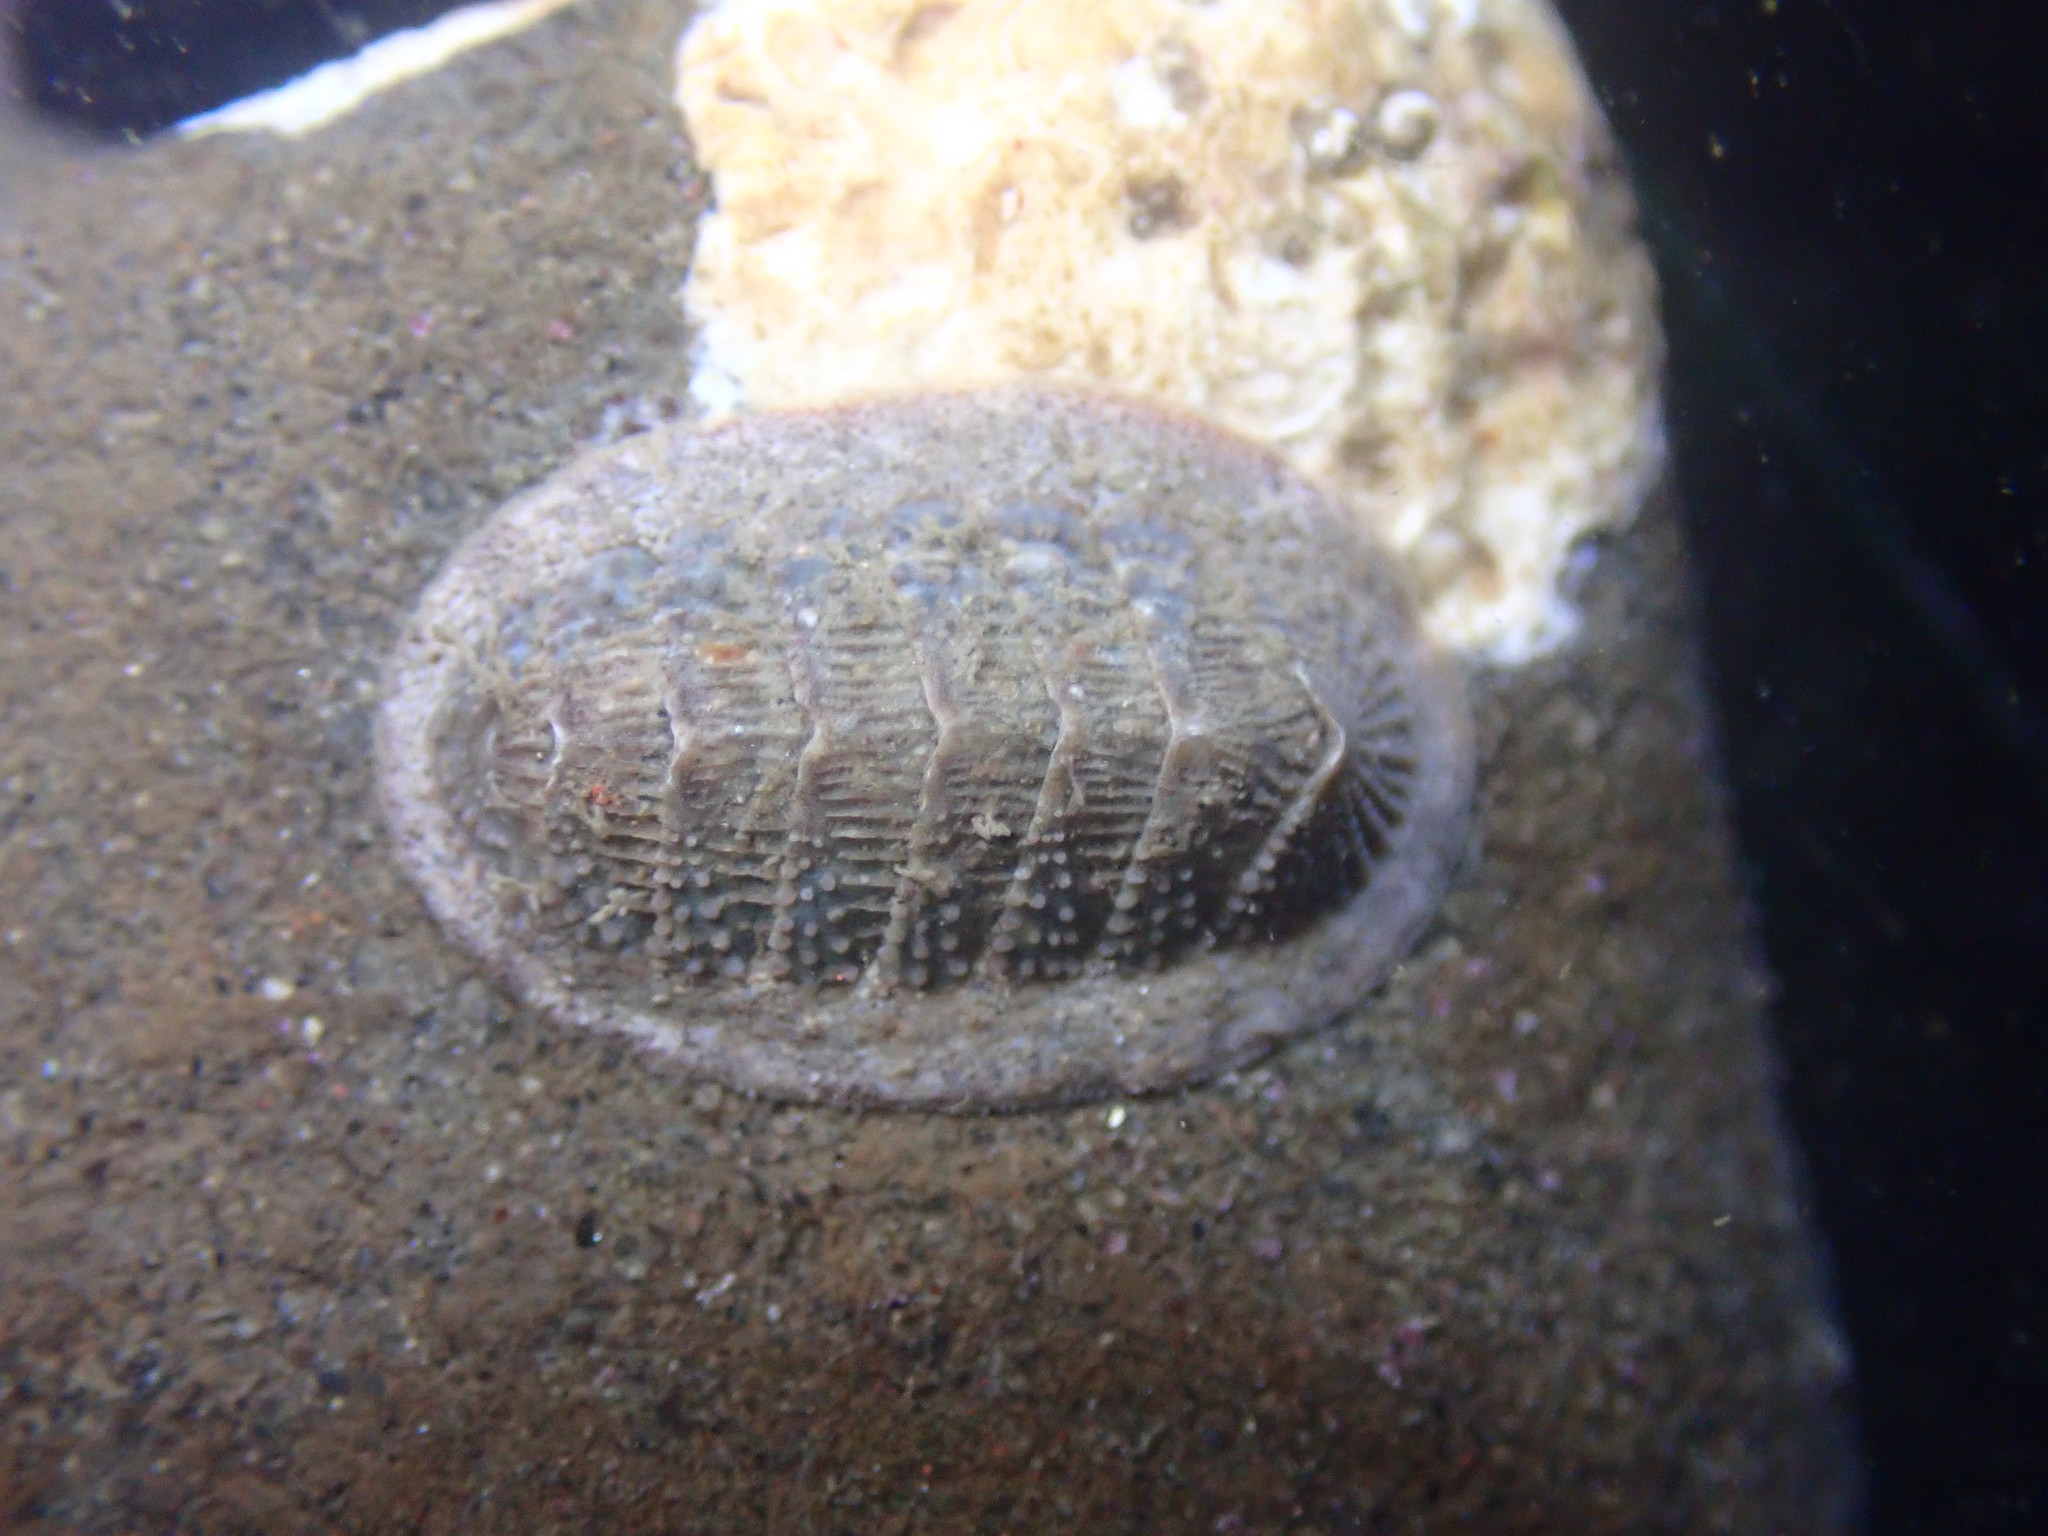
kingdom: Animalia
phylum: Mollusca
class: Polyplacophora
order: Chitonida
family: Ischnochitonidae
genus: Lepidozona
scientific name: Lepidozona cooperi
